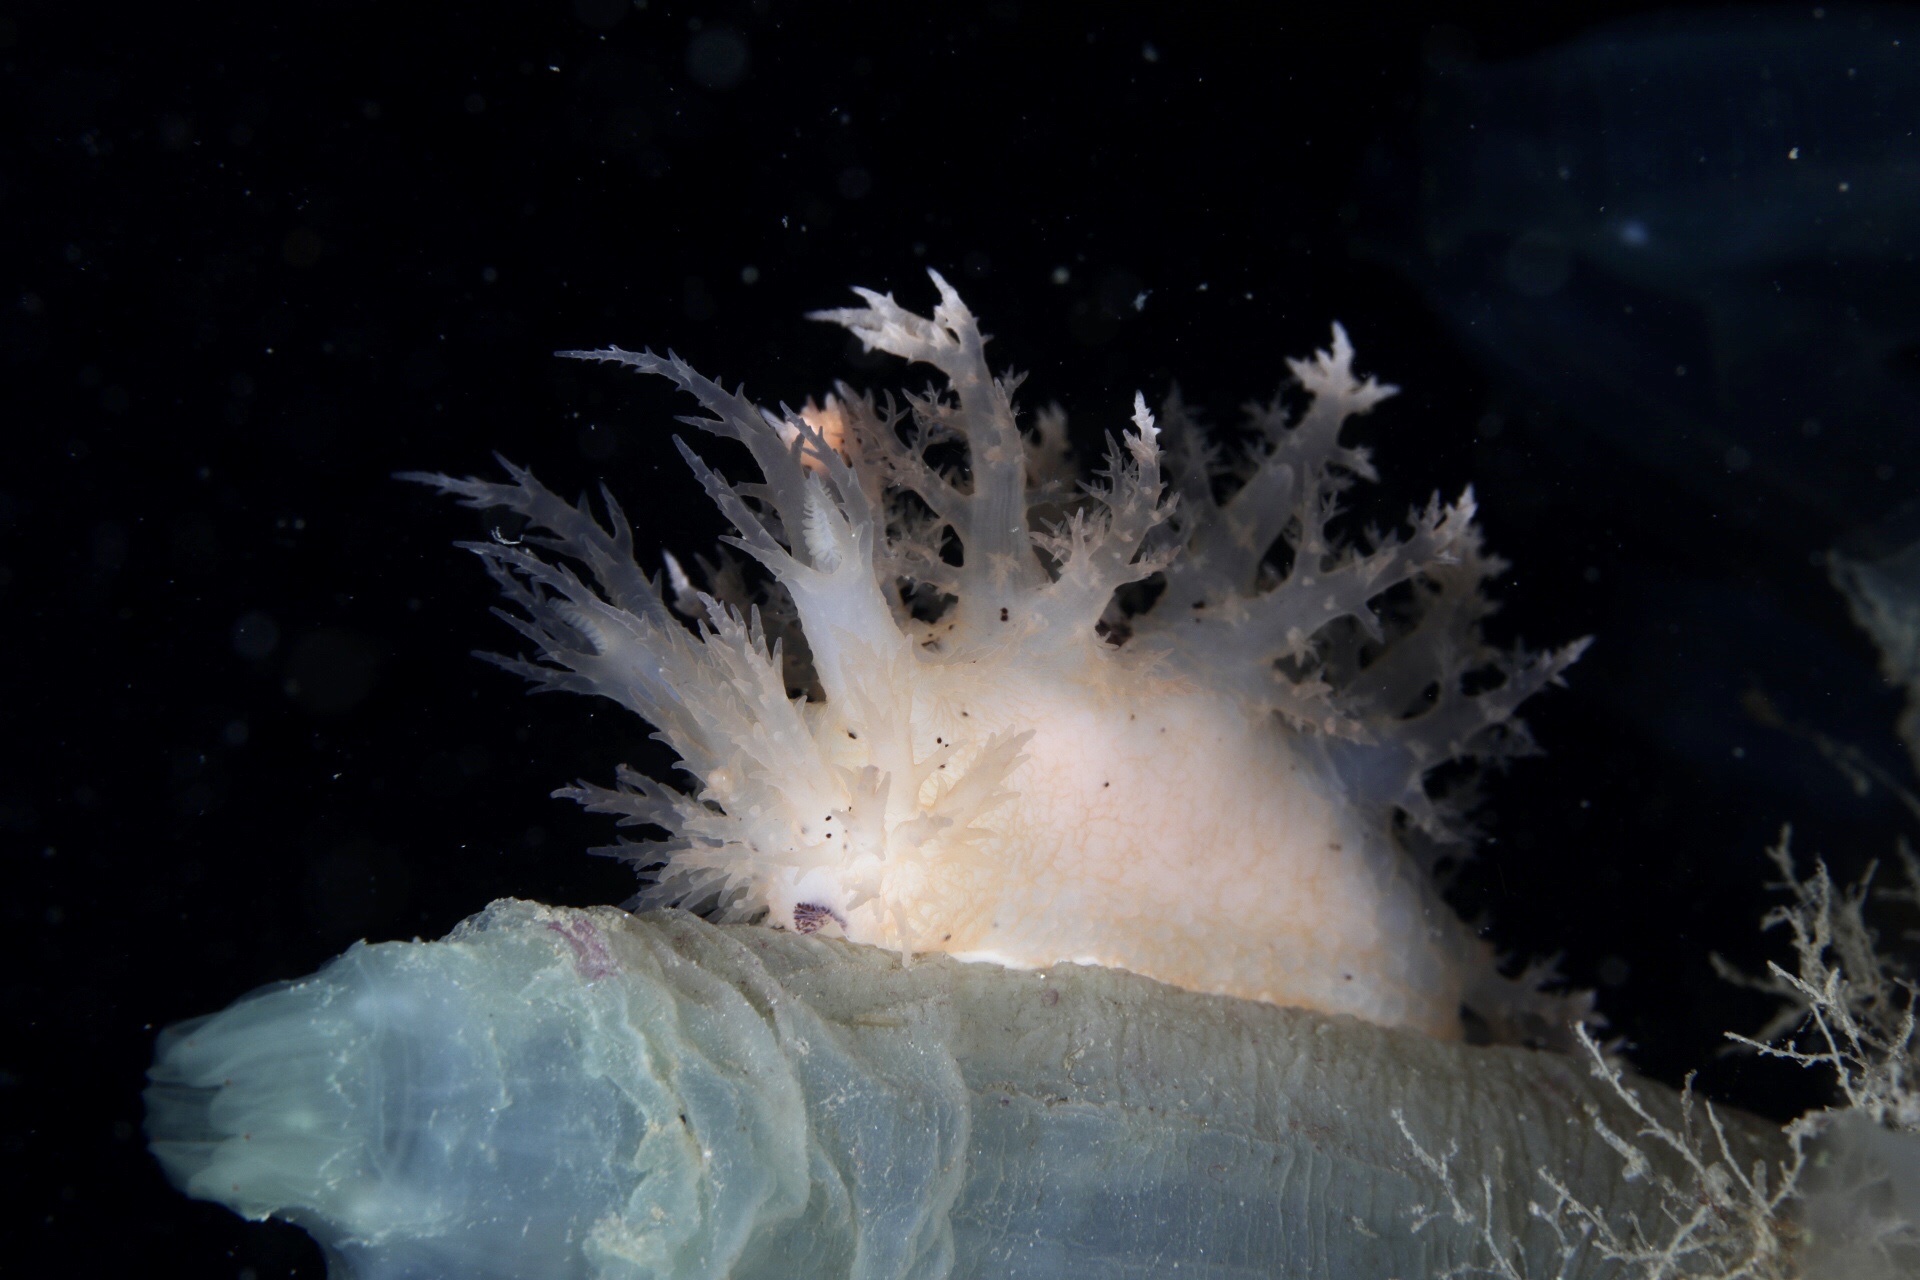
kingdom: Animalia
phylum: Mollusca
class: Gastropoda
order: Nudibranchia
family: Dendronotidae
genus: Dendronotus
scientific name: Dendronotus europaeus
